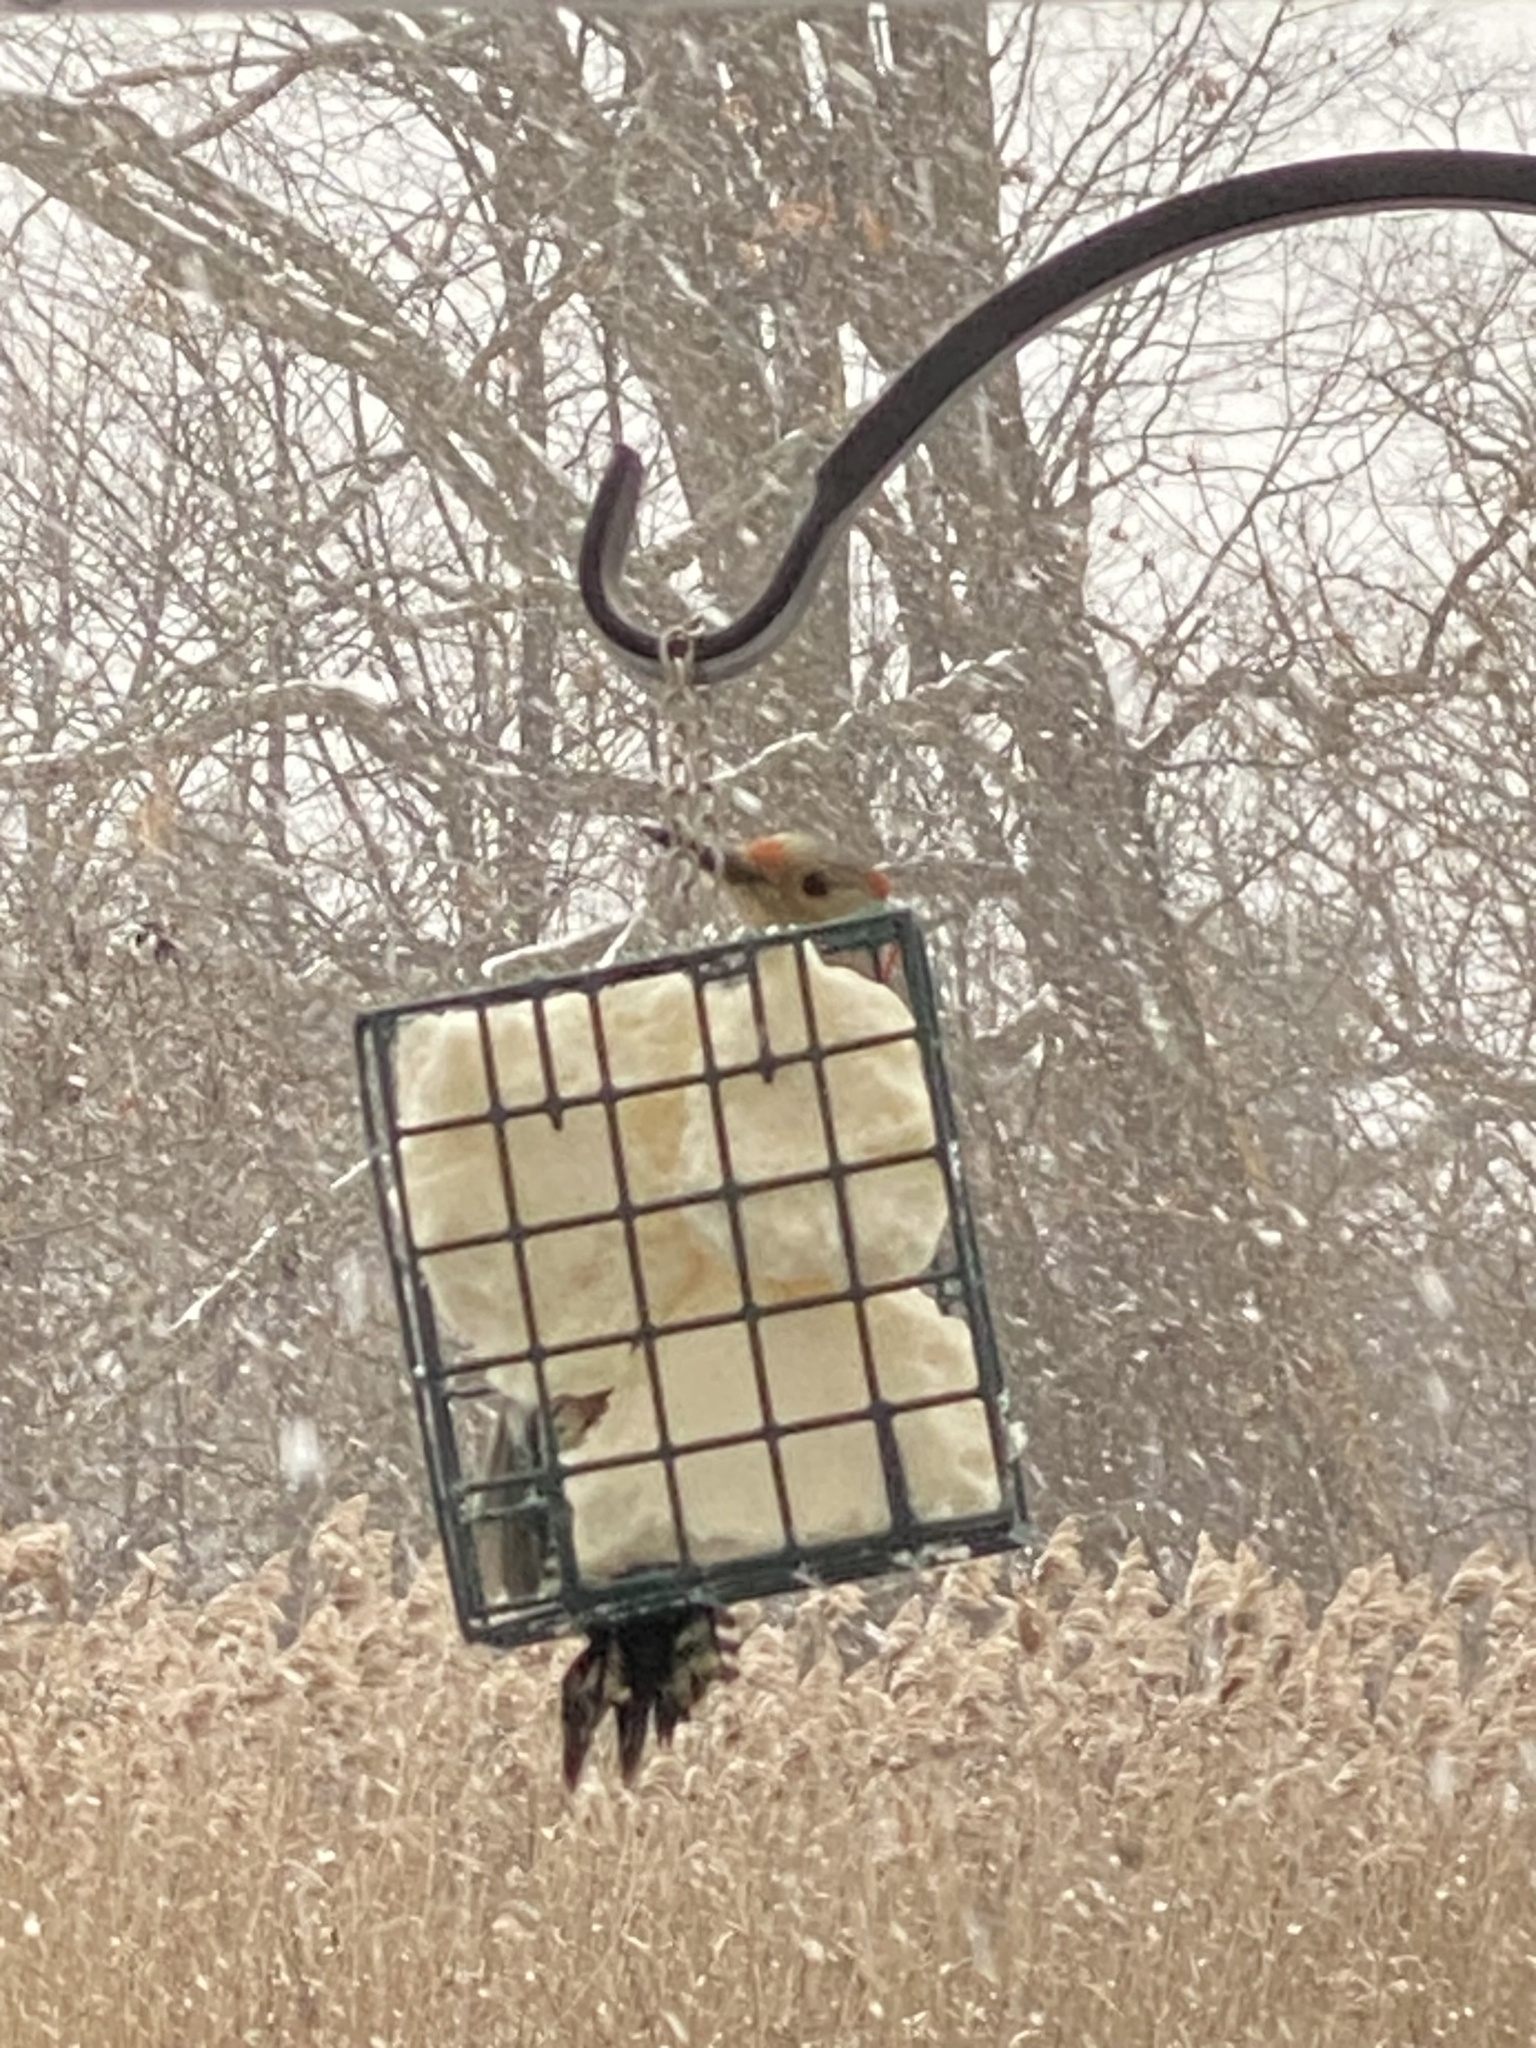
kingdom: Animalia
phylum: Chordata
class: Aves
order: Piciformes
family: Picidae
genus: Melanerpes
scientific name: Melanerpes carolinus
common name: Red-bellied woodpecker
